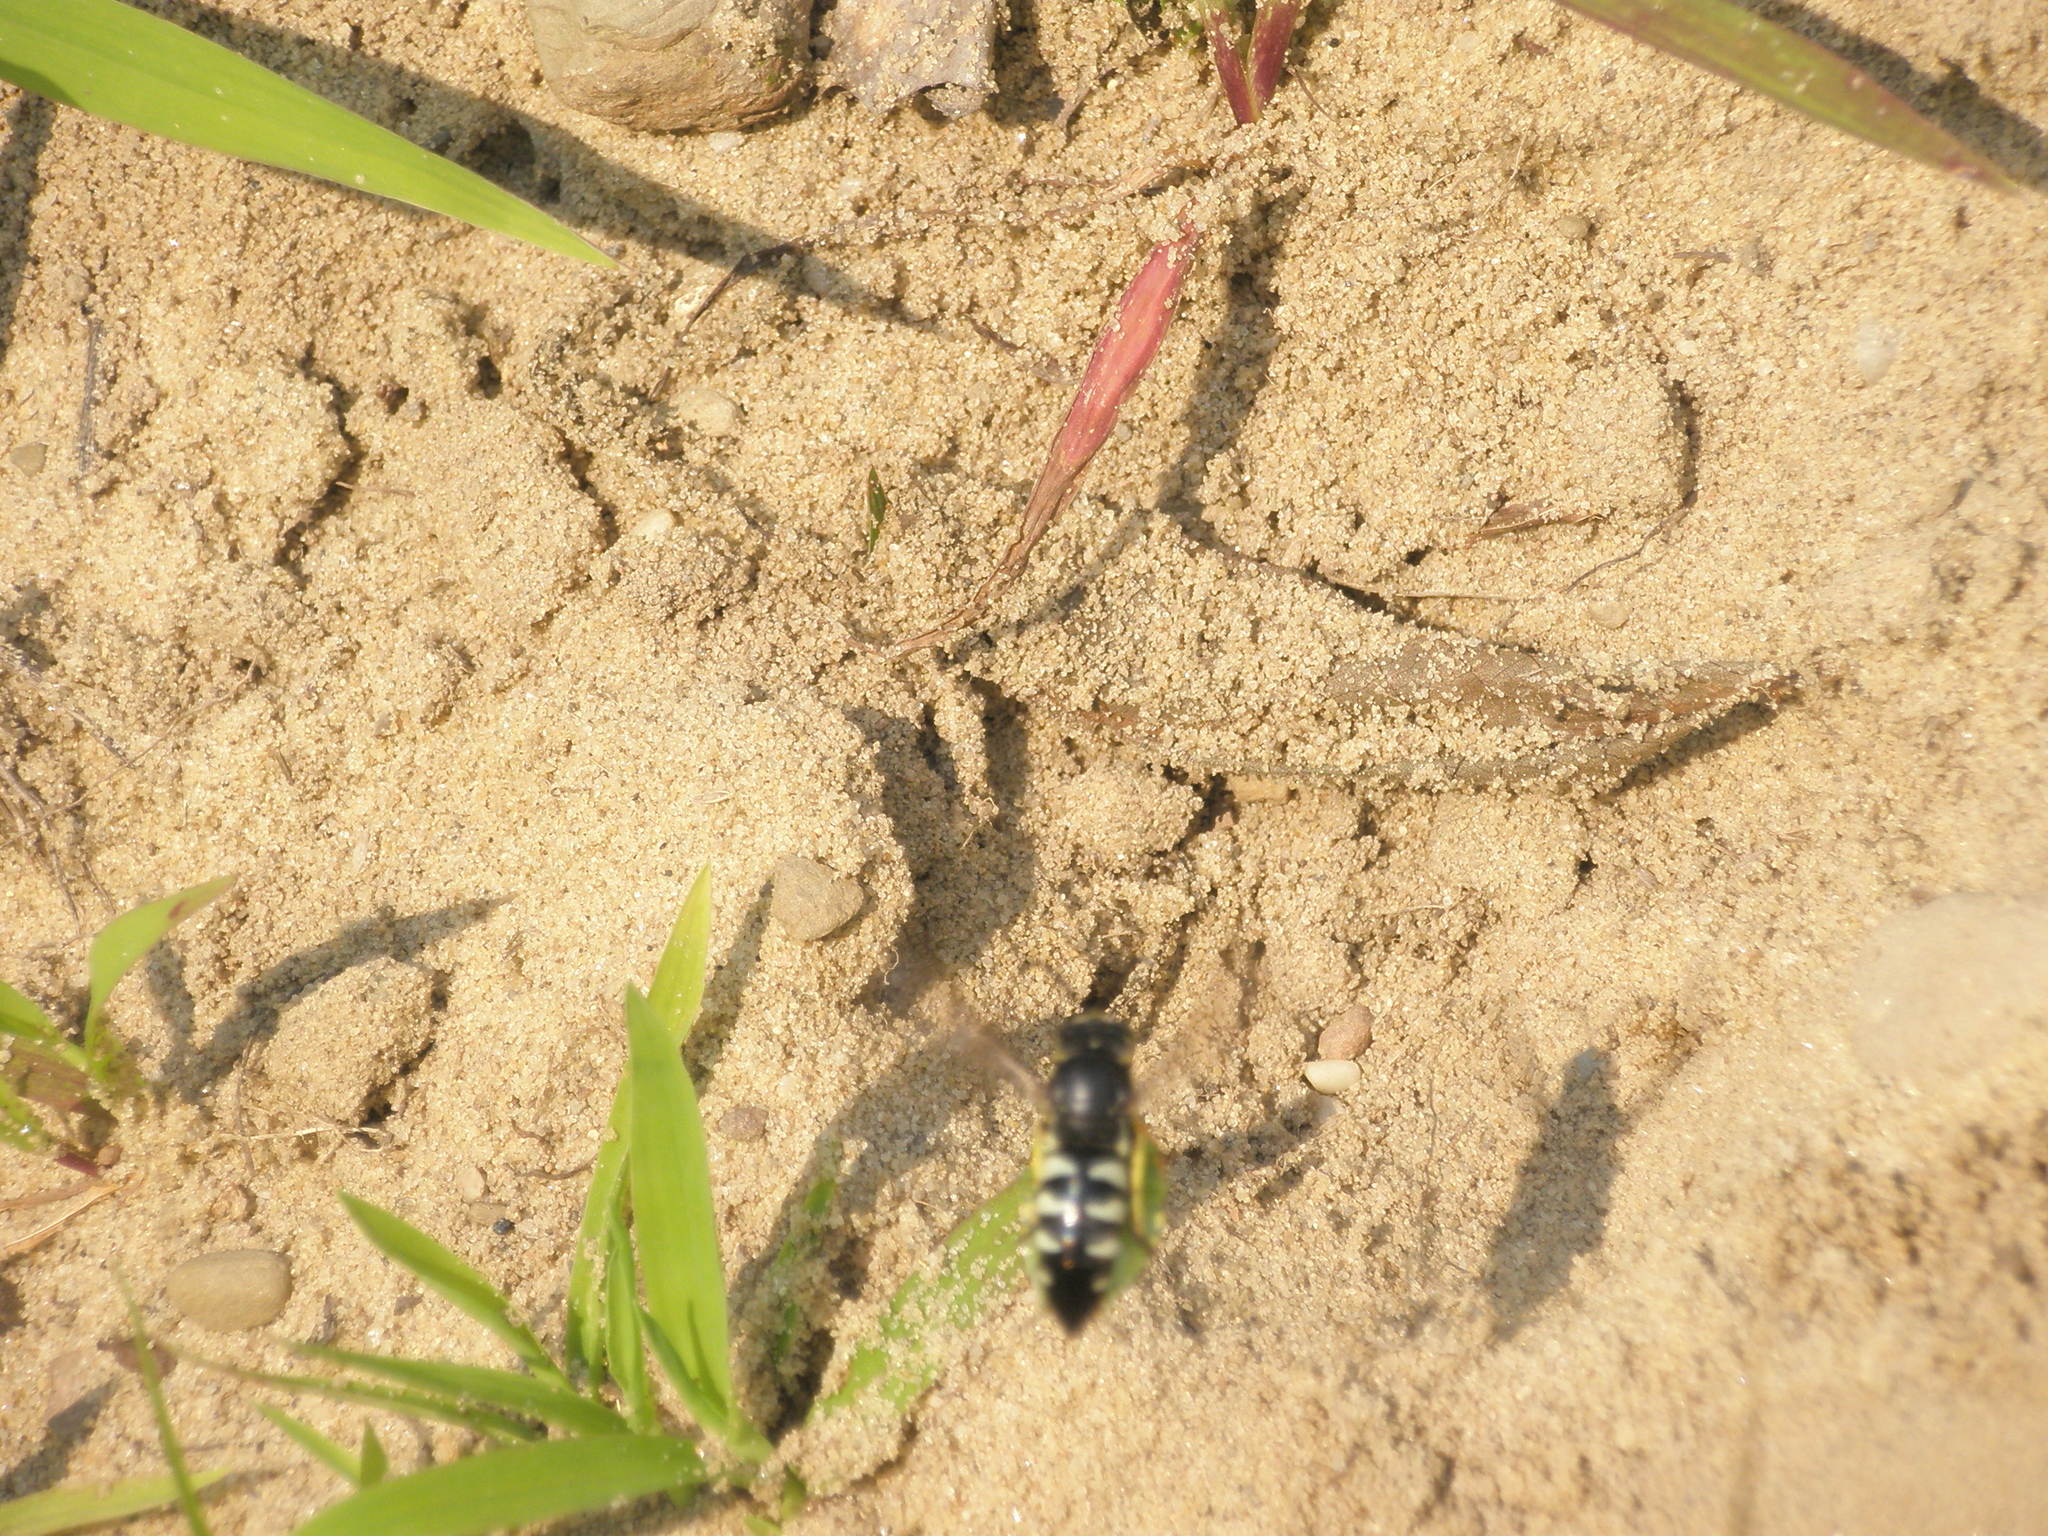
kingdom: Animalia
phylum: Arthropoda
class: Insecta
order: Hymenoptera
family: Crabronidae
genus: Bicyrtes
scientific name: Bicyrtes quadrifasciatus
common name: Four-banded stink bug hunter wasp
